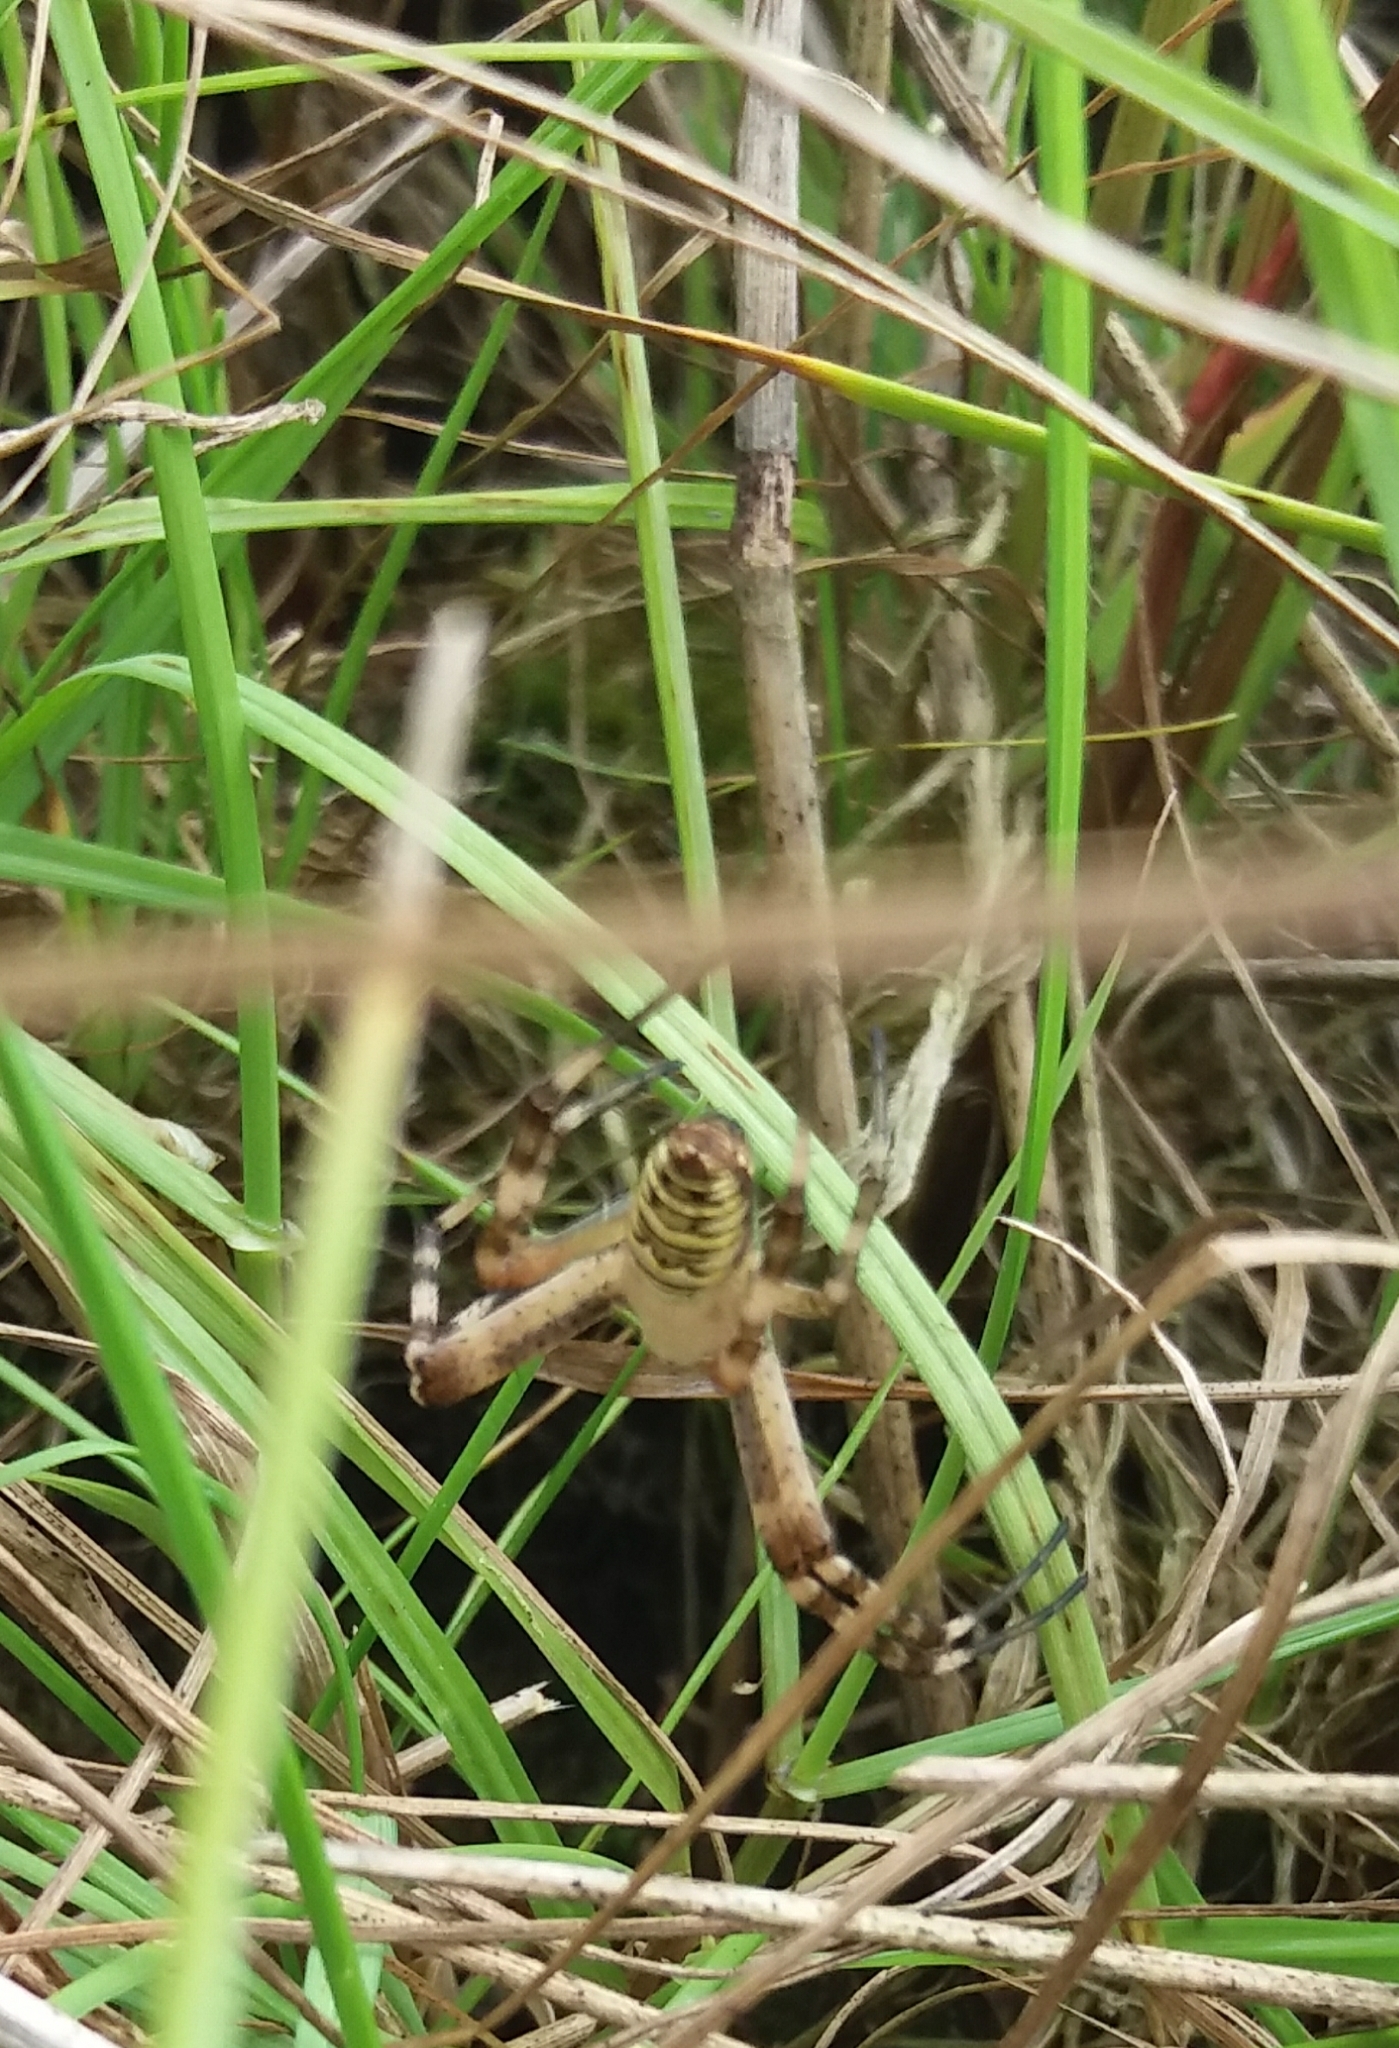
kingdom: Animalia
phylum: Arthropoda
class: Arachnida
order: Araneae
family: Araneidae
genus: Argiope
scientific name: Argiope bruennichi
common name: Wasp spider
